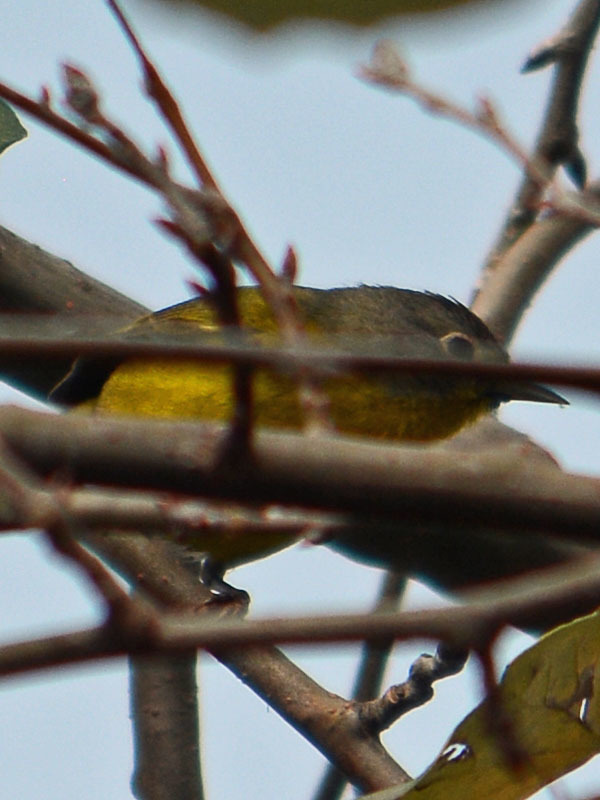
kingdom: Animalia
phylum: Chordata
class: Aves
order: Passeriformes
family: Parulidae
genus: Leiothlypis
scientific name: Leiothlypis ruficapilla
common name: Nashville warbler
